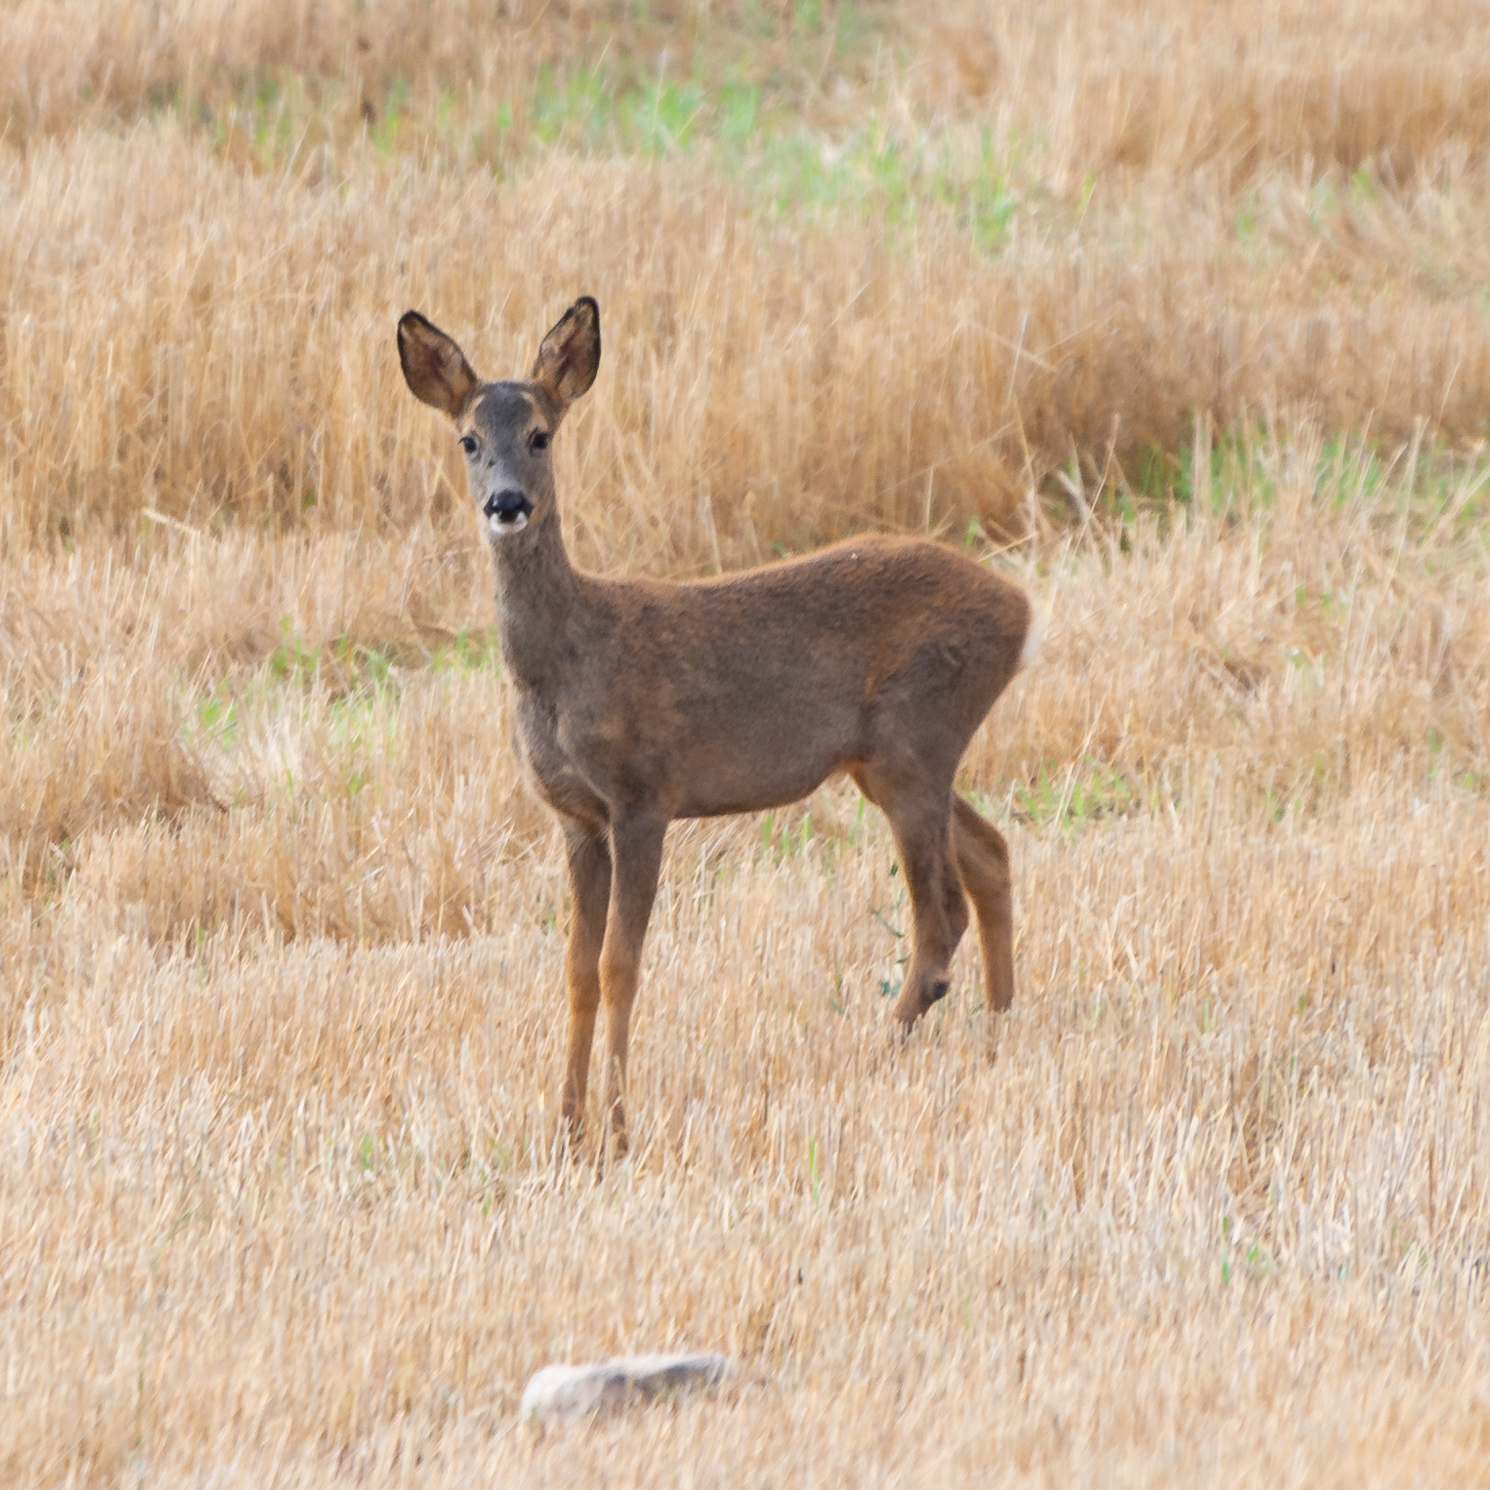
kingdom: Animalia
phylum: Chordata
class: Mammalia
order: Artiodactyla
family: Cervidae
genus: Capreolus
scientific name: Capreolus capreolus
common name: Western roe deer
